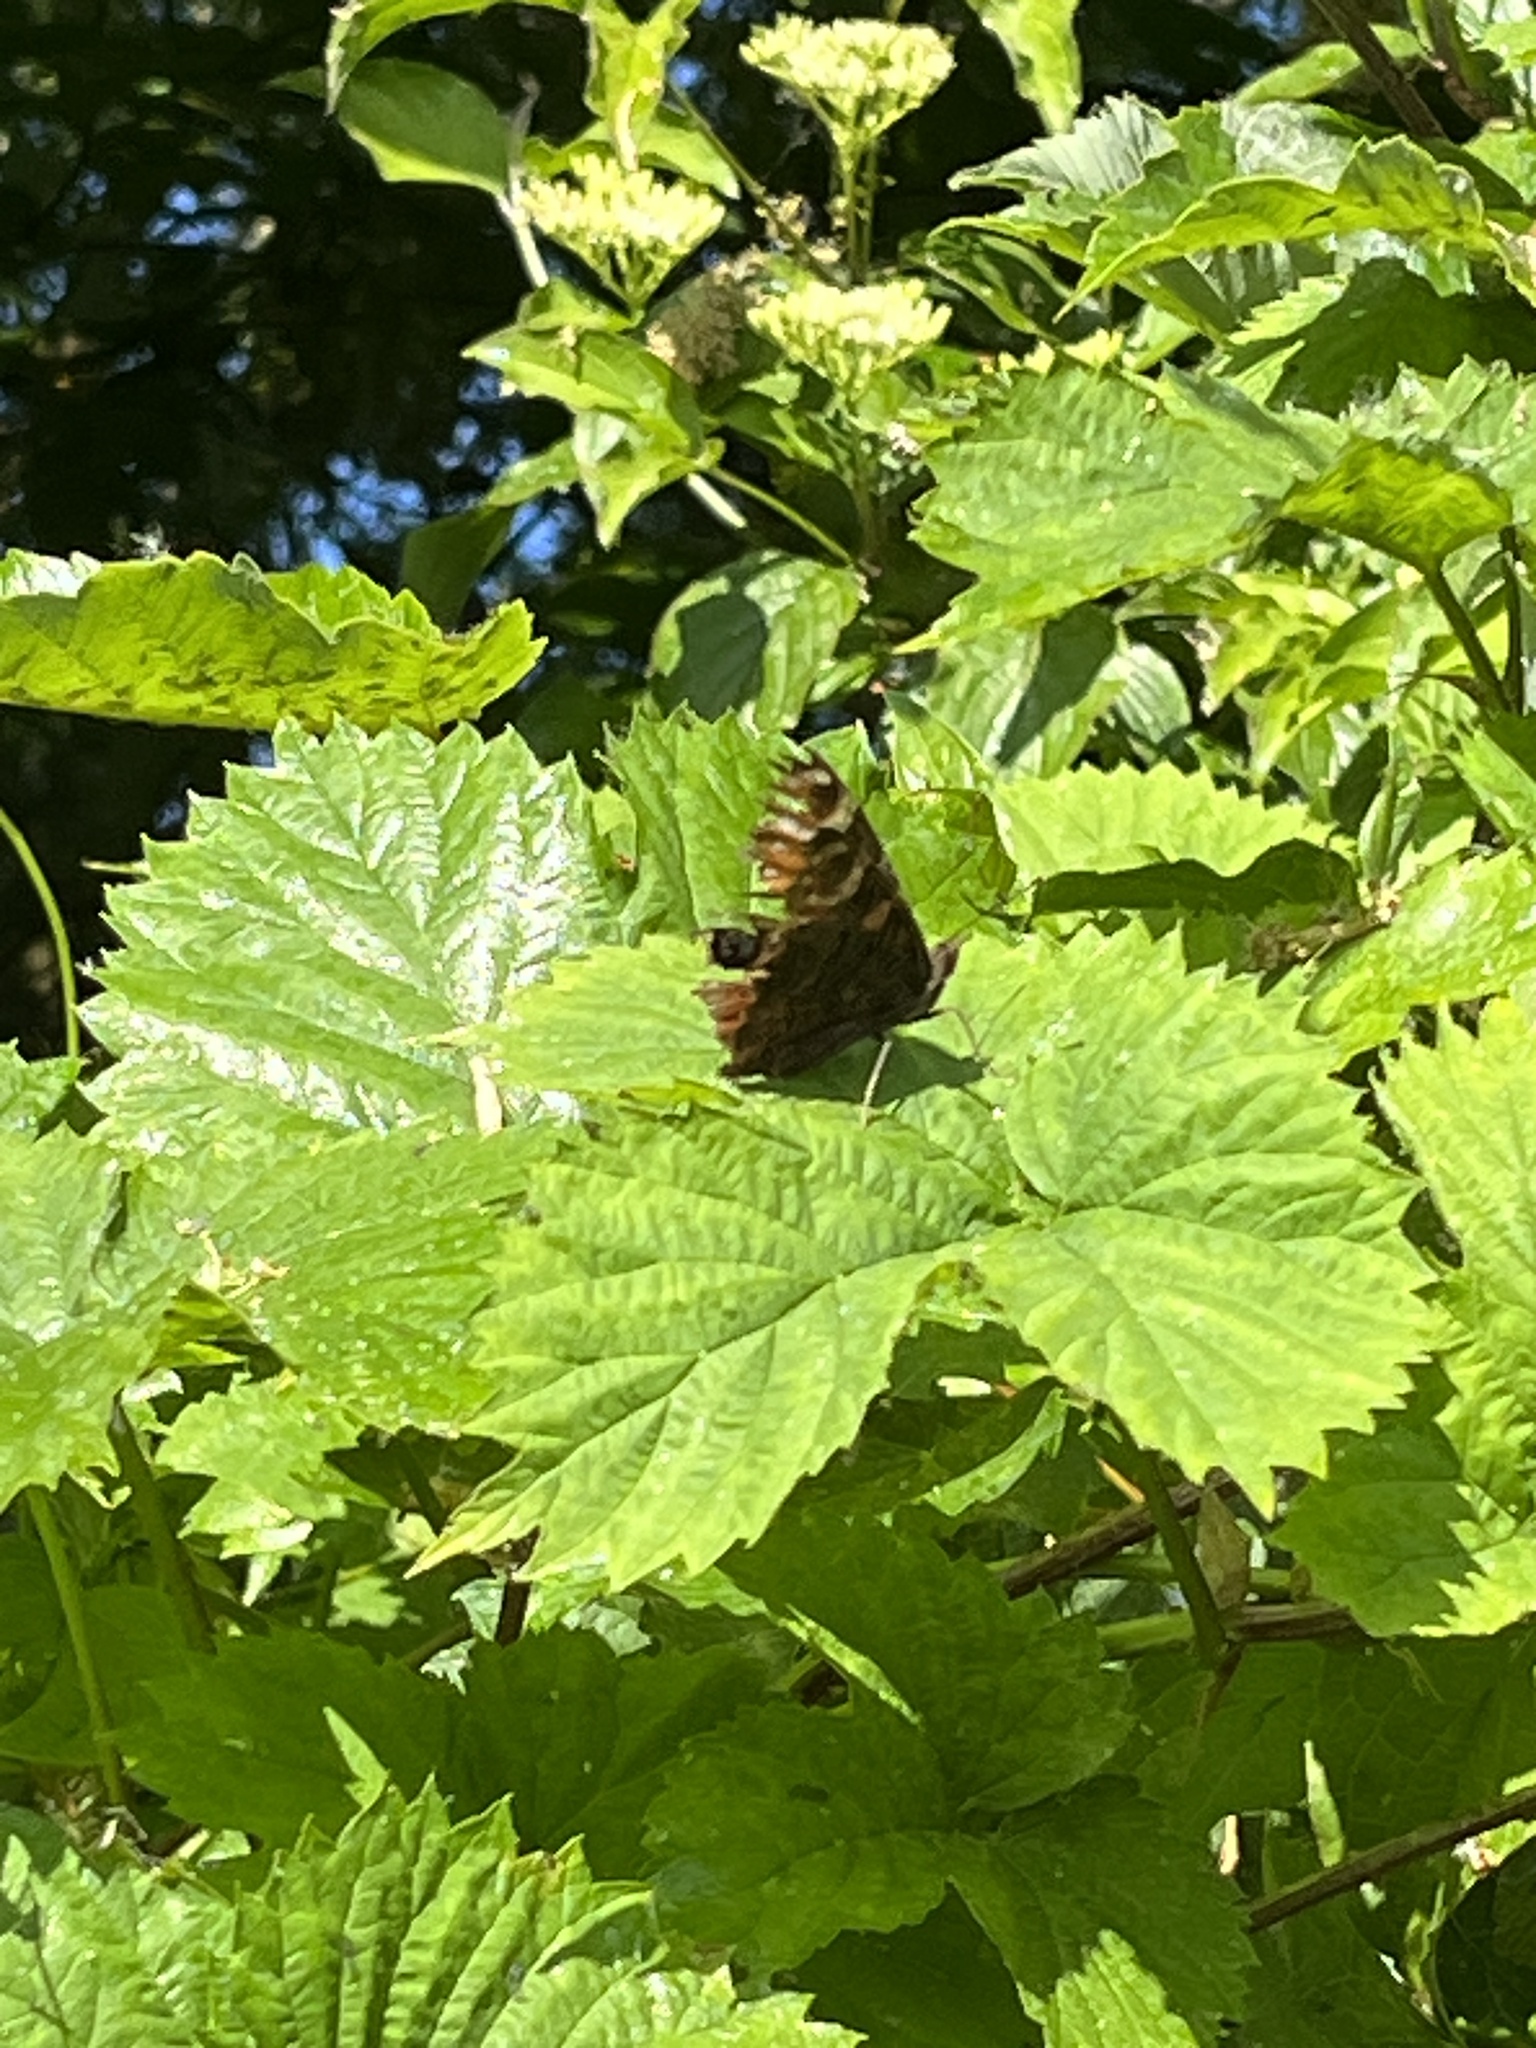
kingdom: Animalia
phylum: Arthropoda
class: Insecta
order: Lepidoptera
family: Nymphalidae
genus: Aglais
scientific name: Aglais io
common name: Peacock
